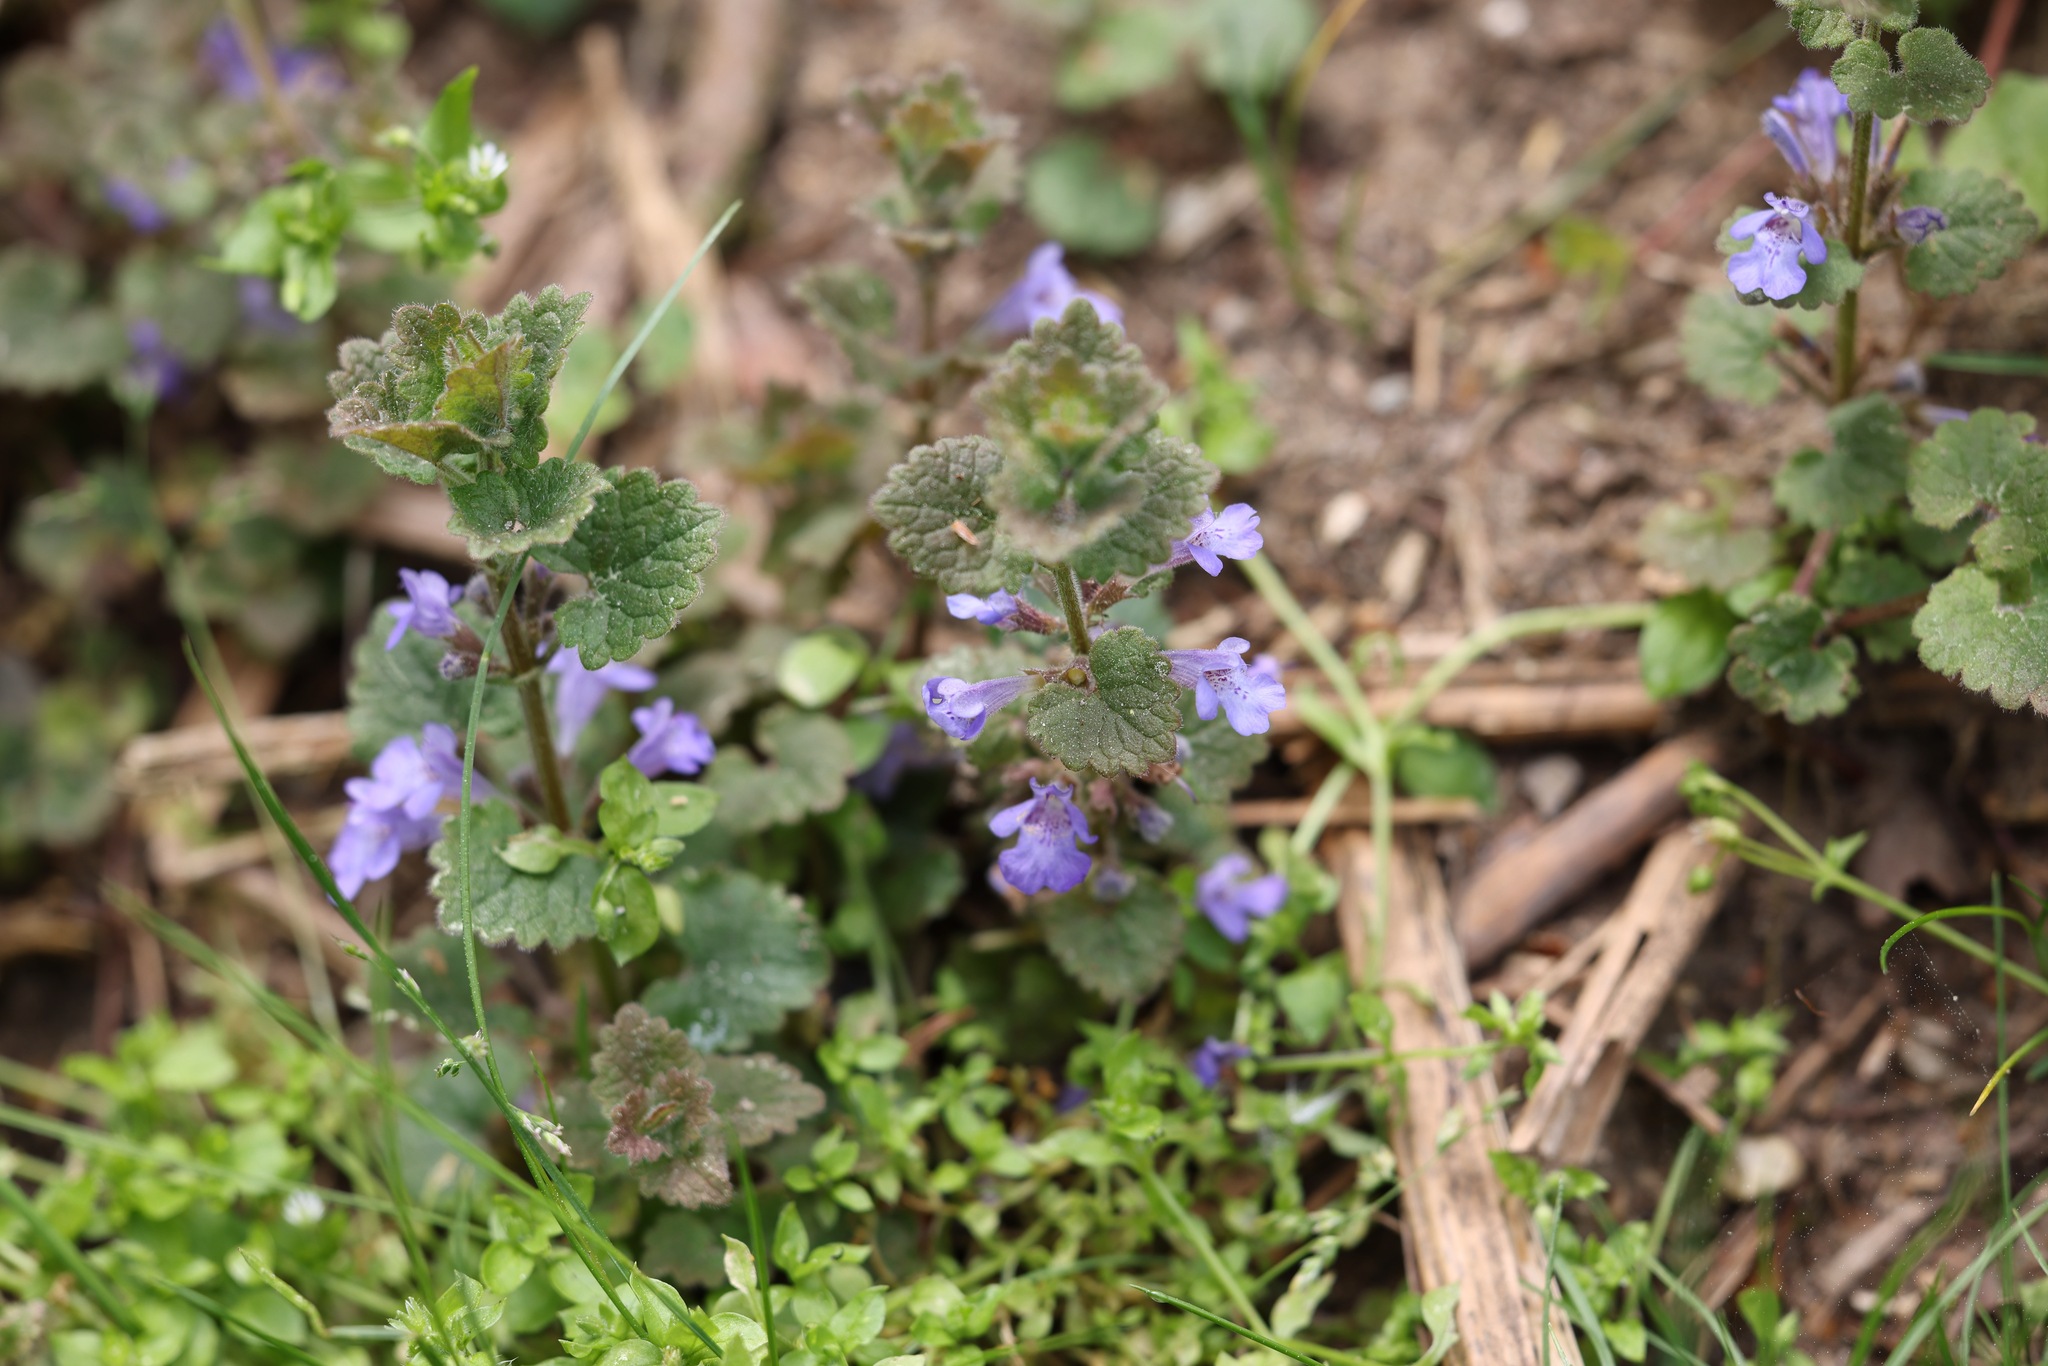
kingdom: Plantae
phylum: Tracheophyta
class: Magnoliopsida
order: Lamiales
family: Lamiaceae
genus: Glechoma
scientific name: Glechoma hederacea
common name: Ground ivy
